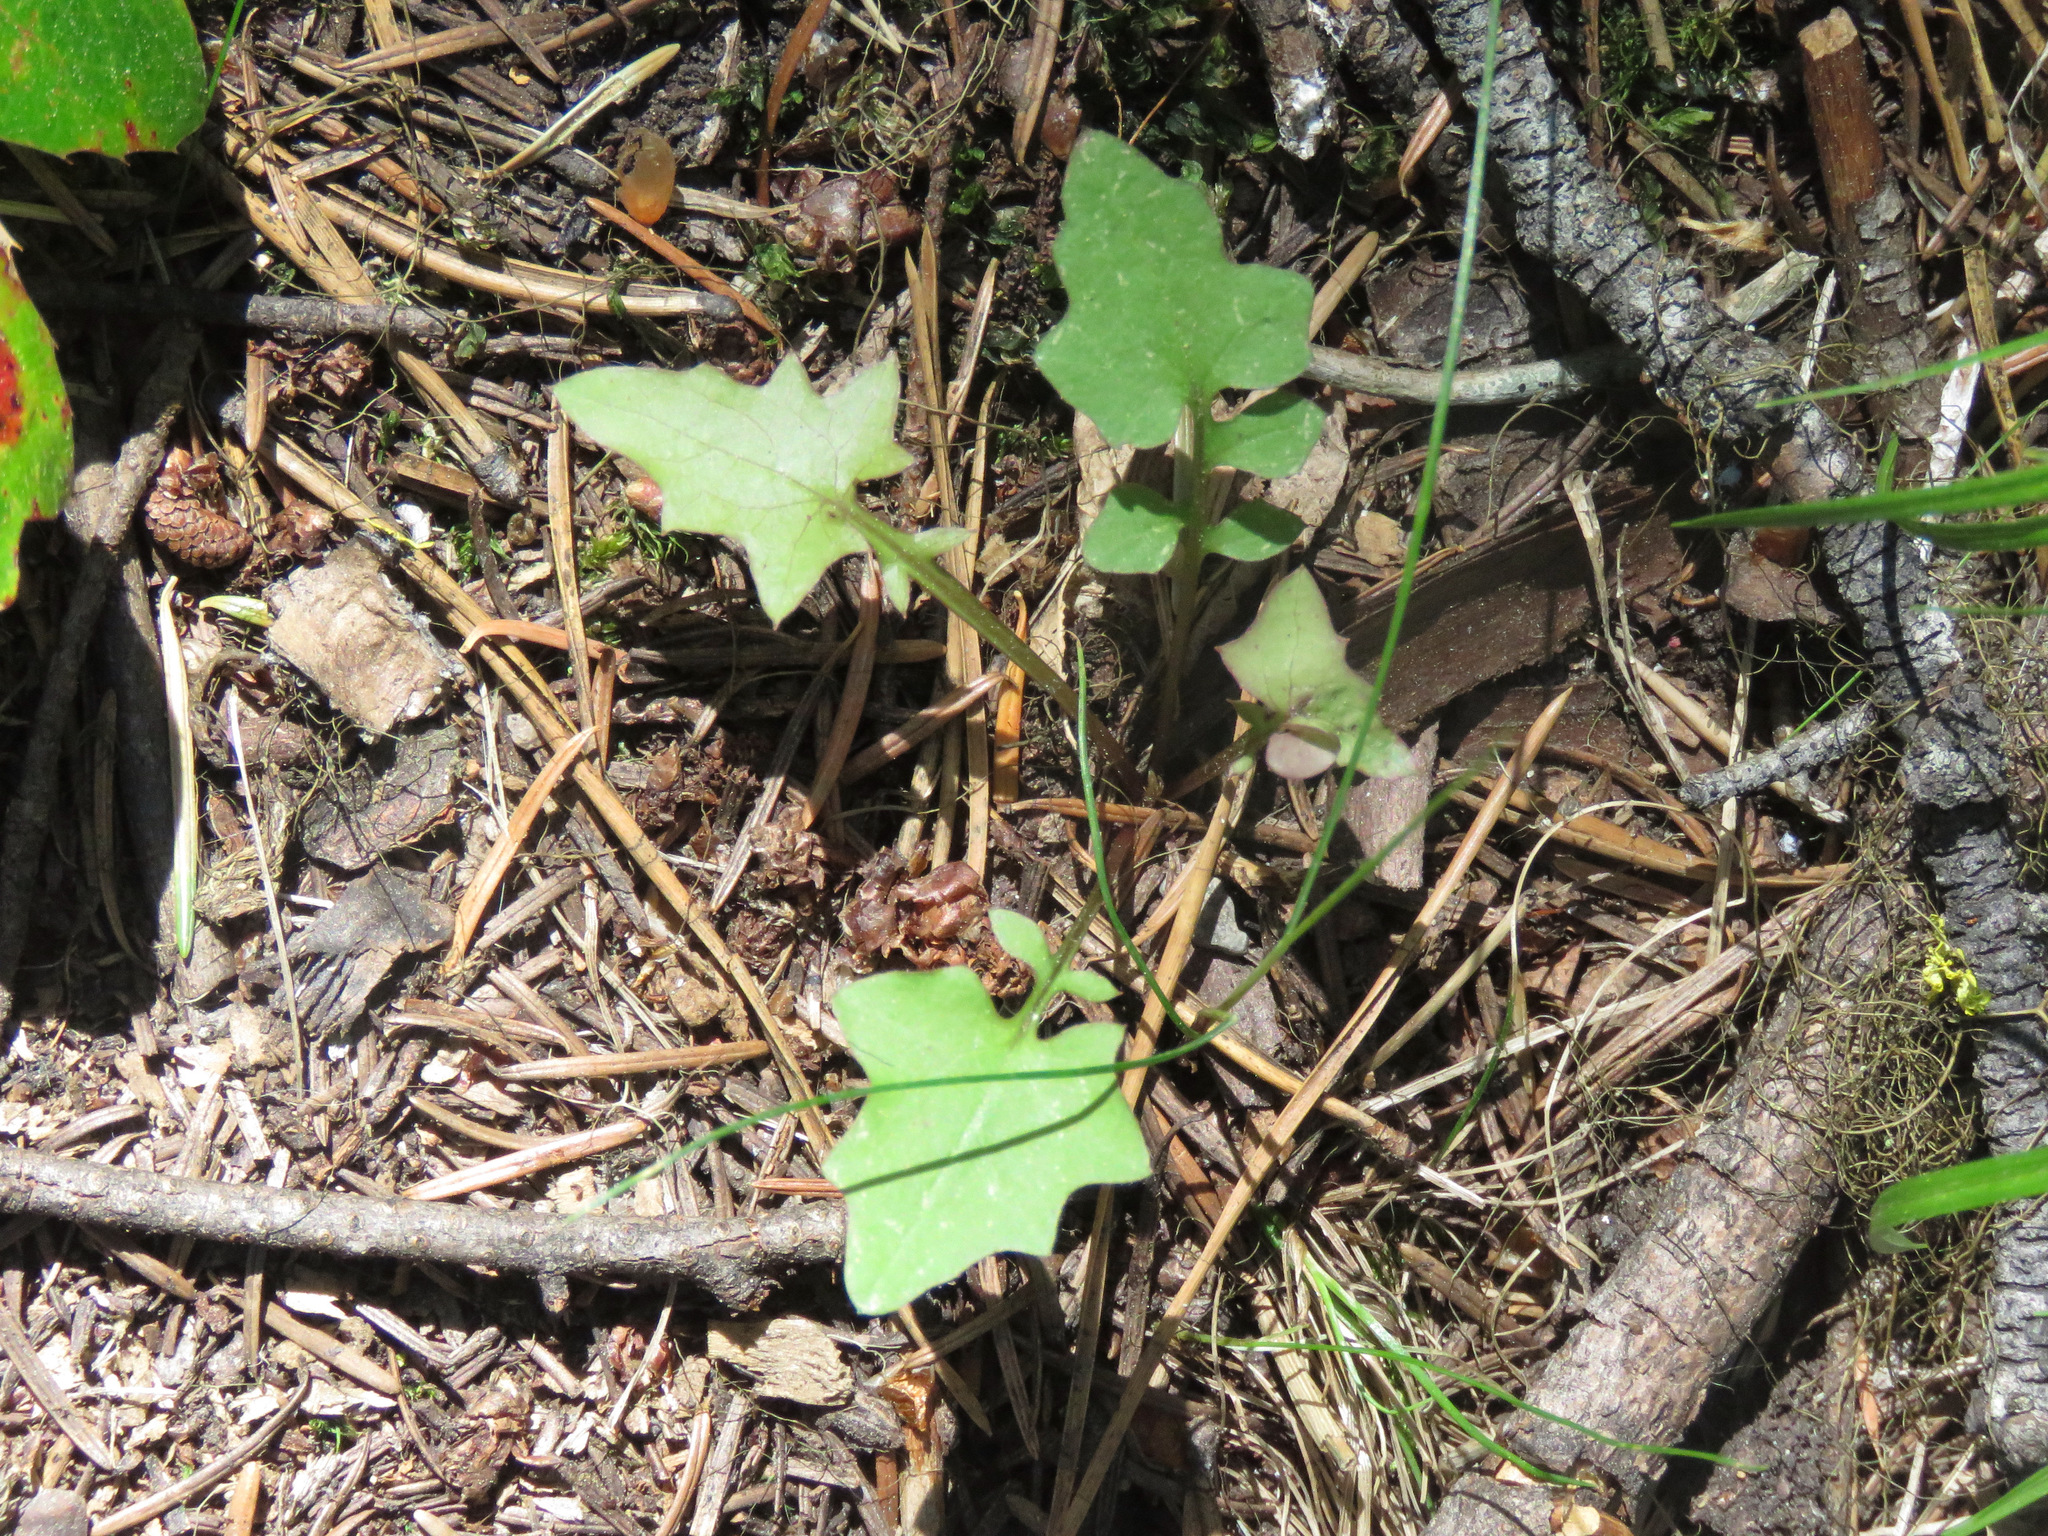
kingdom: Plantae
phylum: Tracheophyta
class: Magnoliopsida
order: Asterales
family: Asteraceae
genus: Mycelis
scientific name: Mycelis muralis
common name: Wall lettuce
